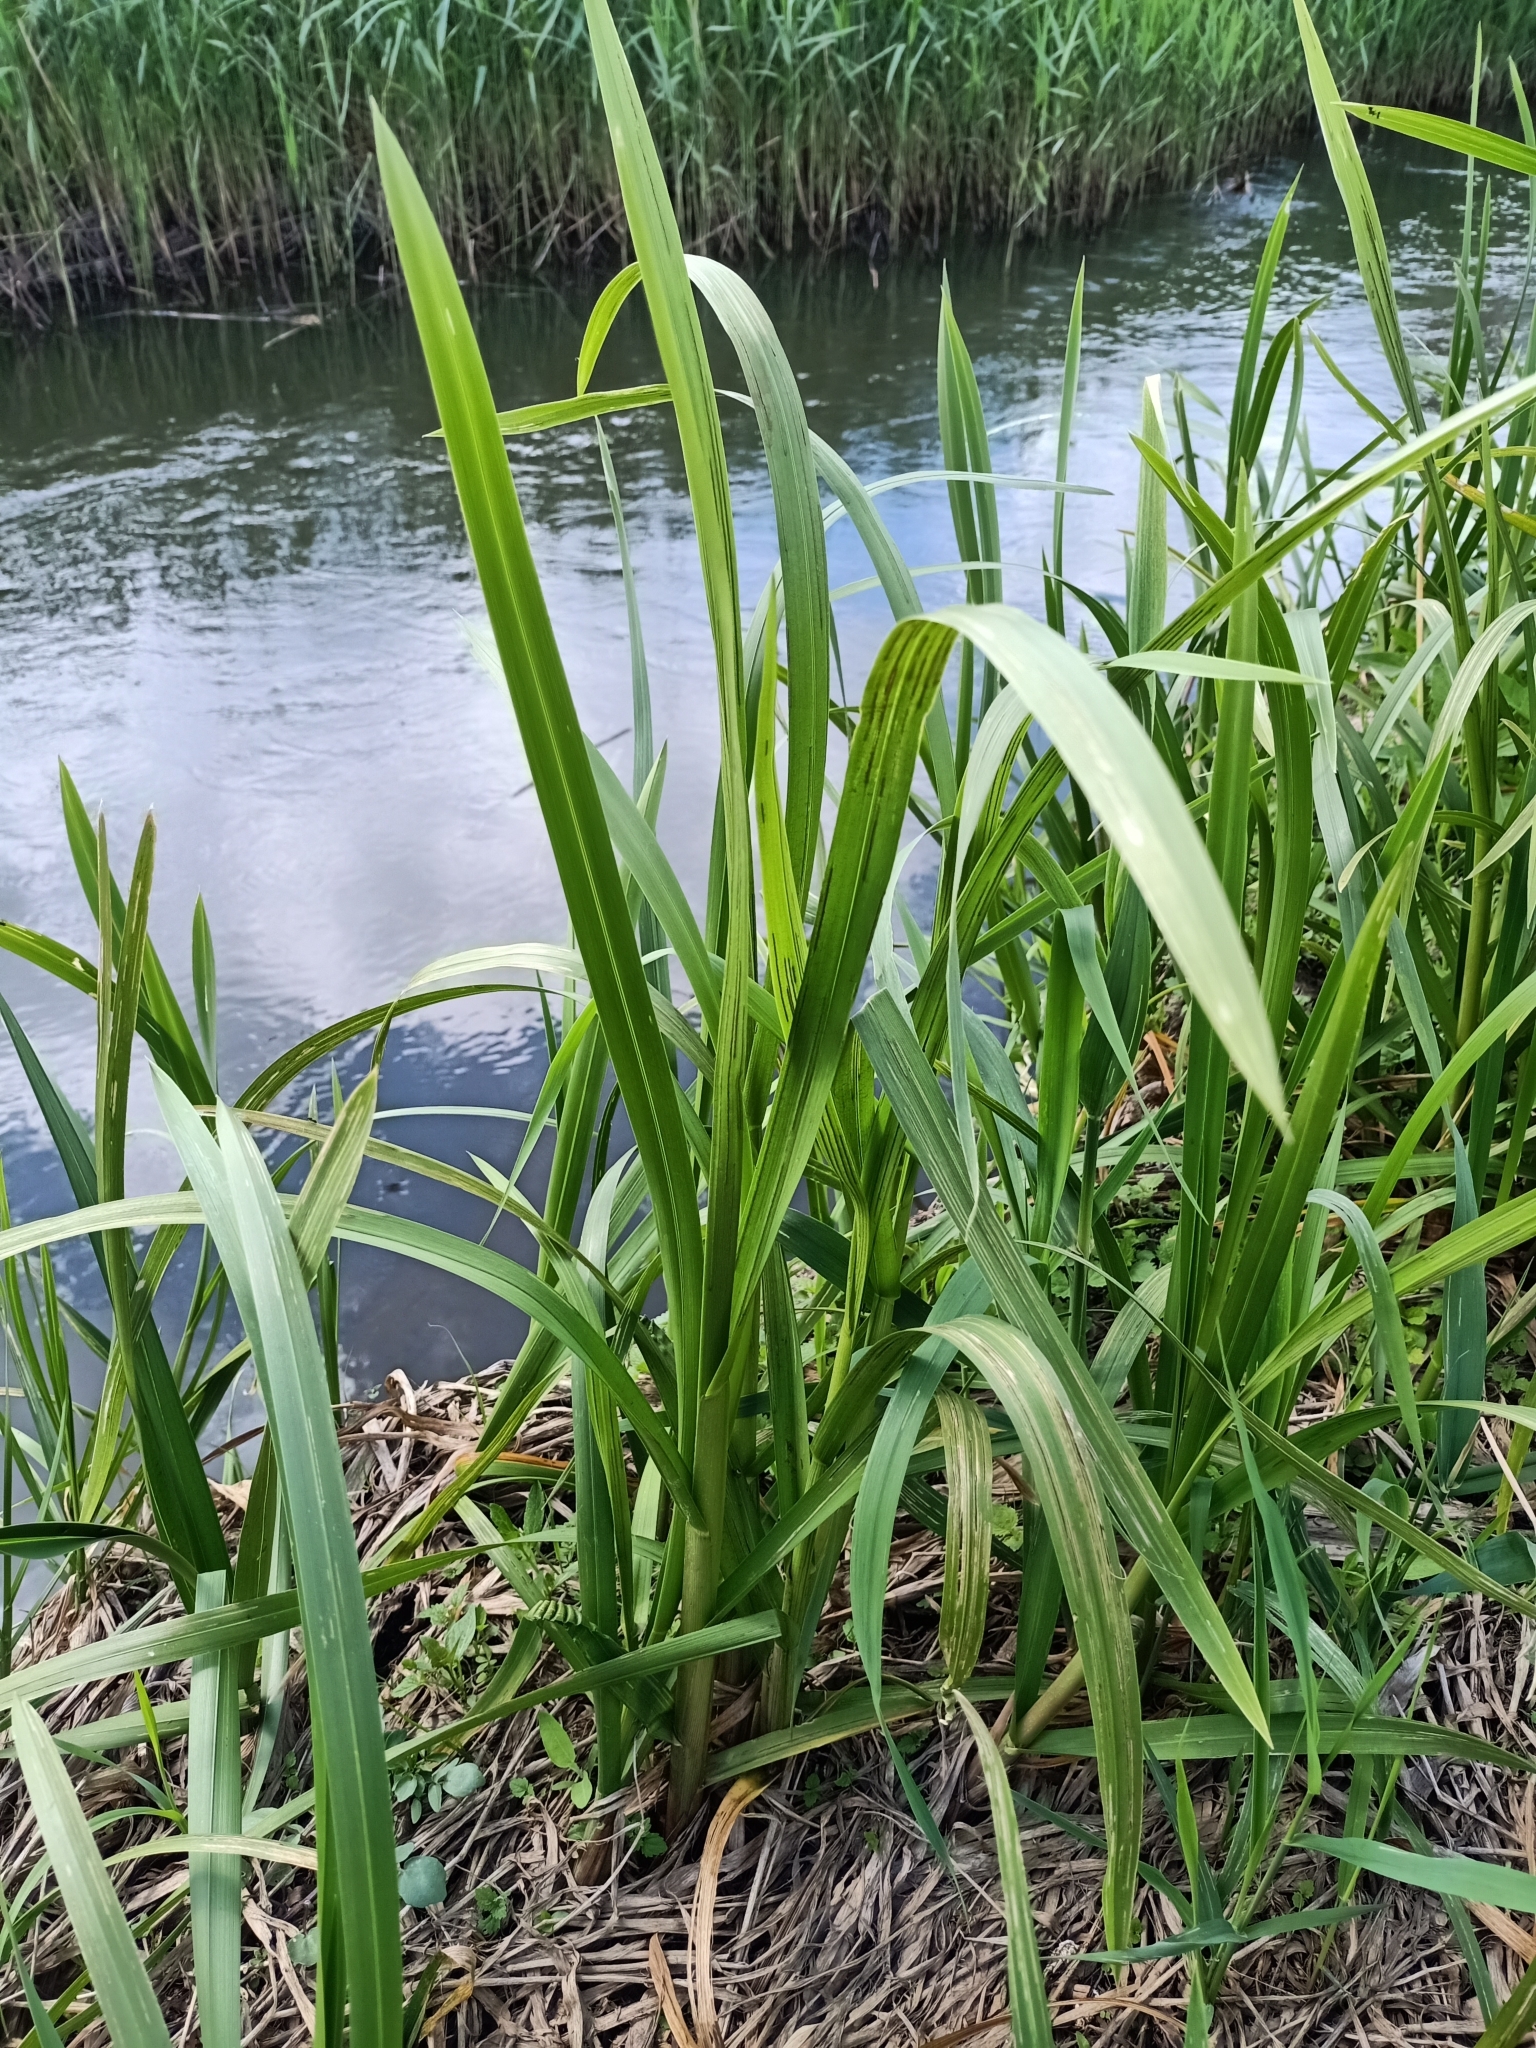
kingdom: Plantae
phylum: Tracheophyta
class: Liliopsida
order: Poales
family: Poaceae
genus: Glyceria
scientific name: Glyceria maxima
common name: Reed mannagrass
